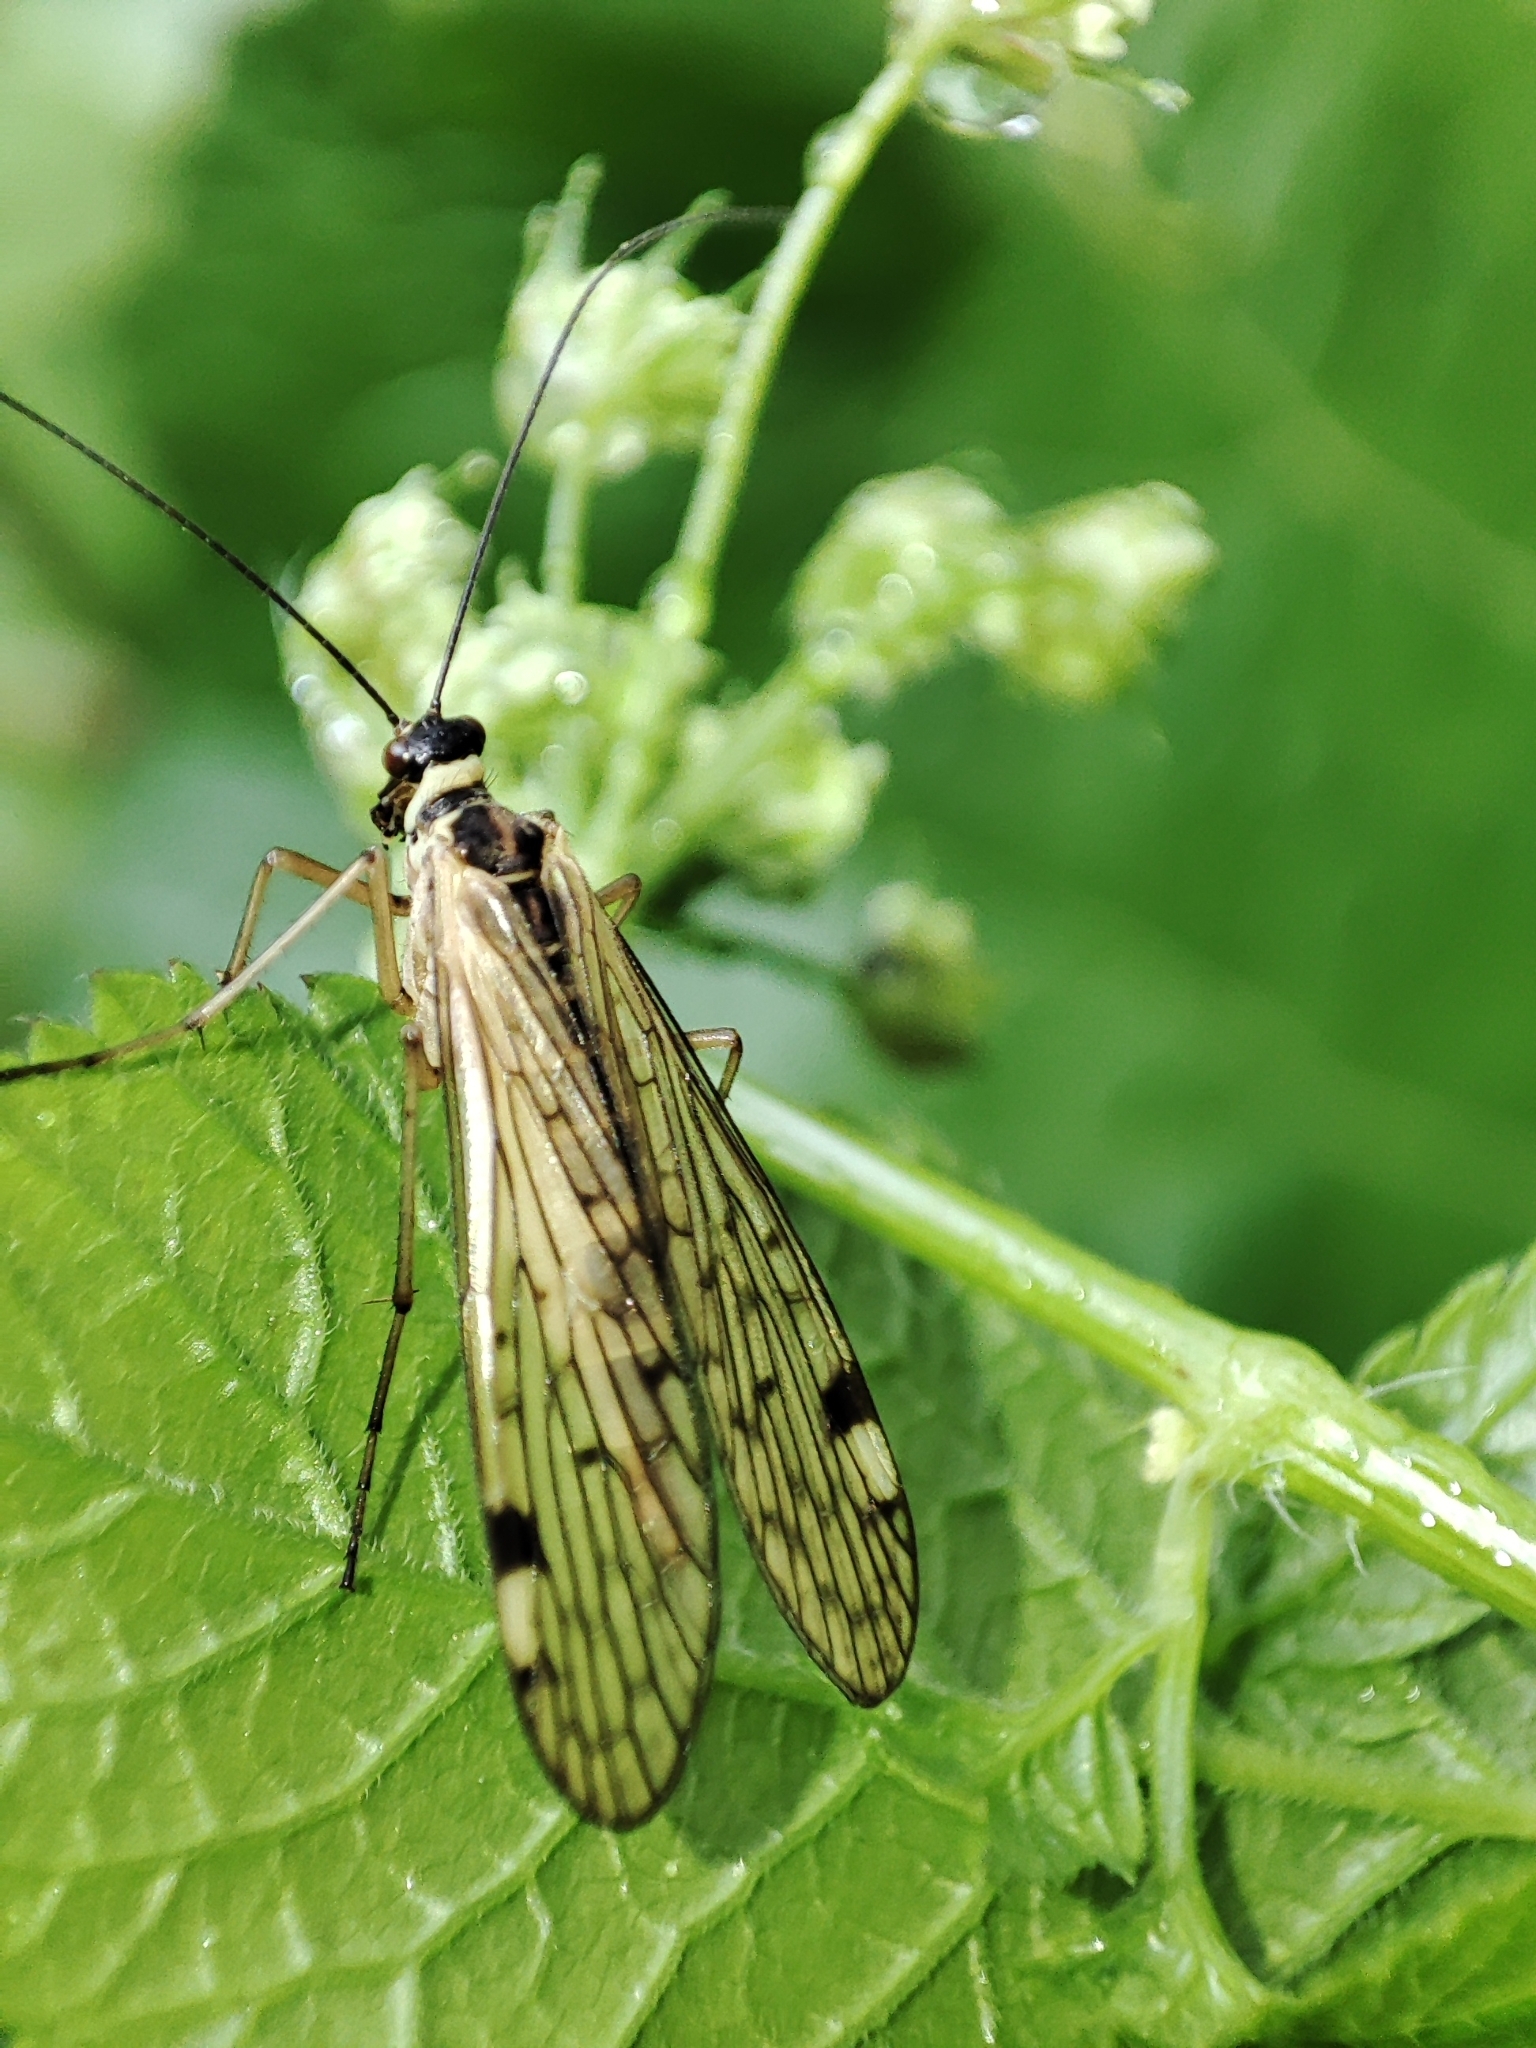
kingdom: Animalia
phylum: Arthropoda
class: Insecta
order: Mecoptera
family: Panorpidae
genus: Panorpa
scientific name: Panorpa alpina
